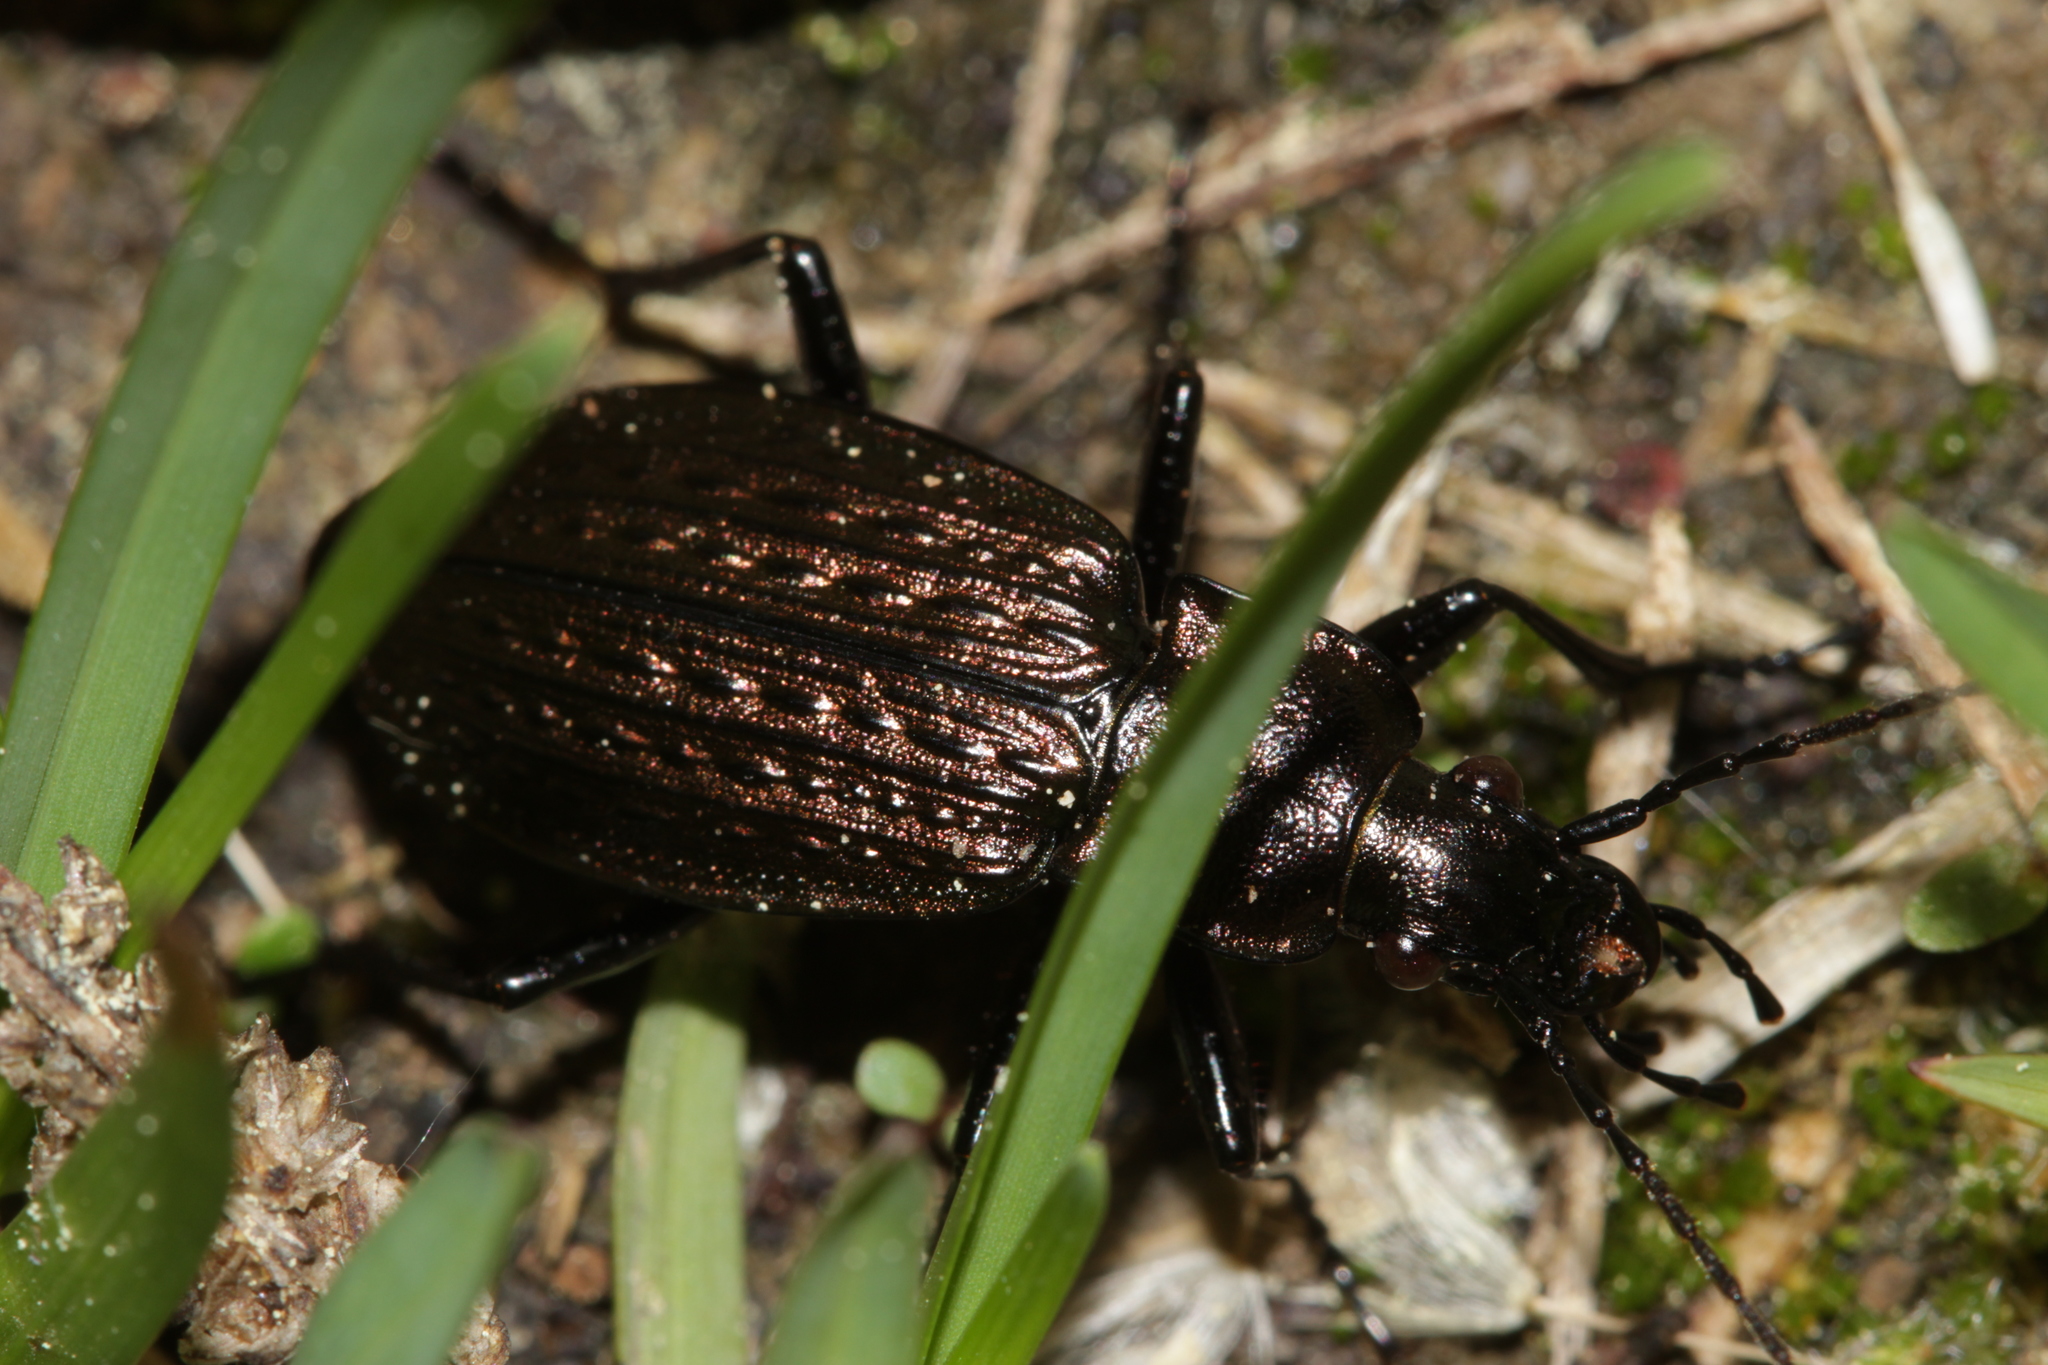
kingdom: Animalia
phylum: Arthropoda
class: Insecta
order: Coleoptera
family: Carabidae
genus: Carabus
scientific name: Carabus granulatus
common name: Granulate ground beetle
